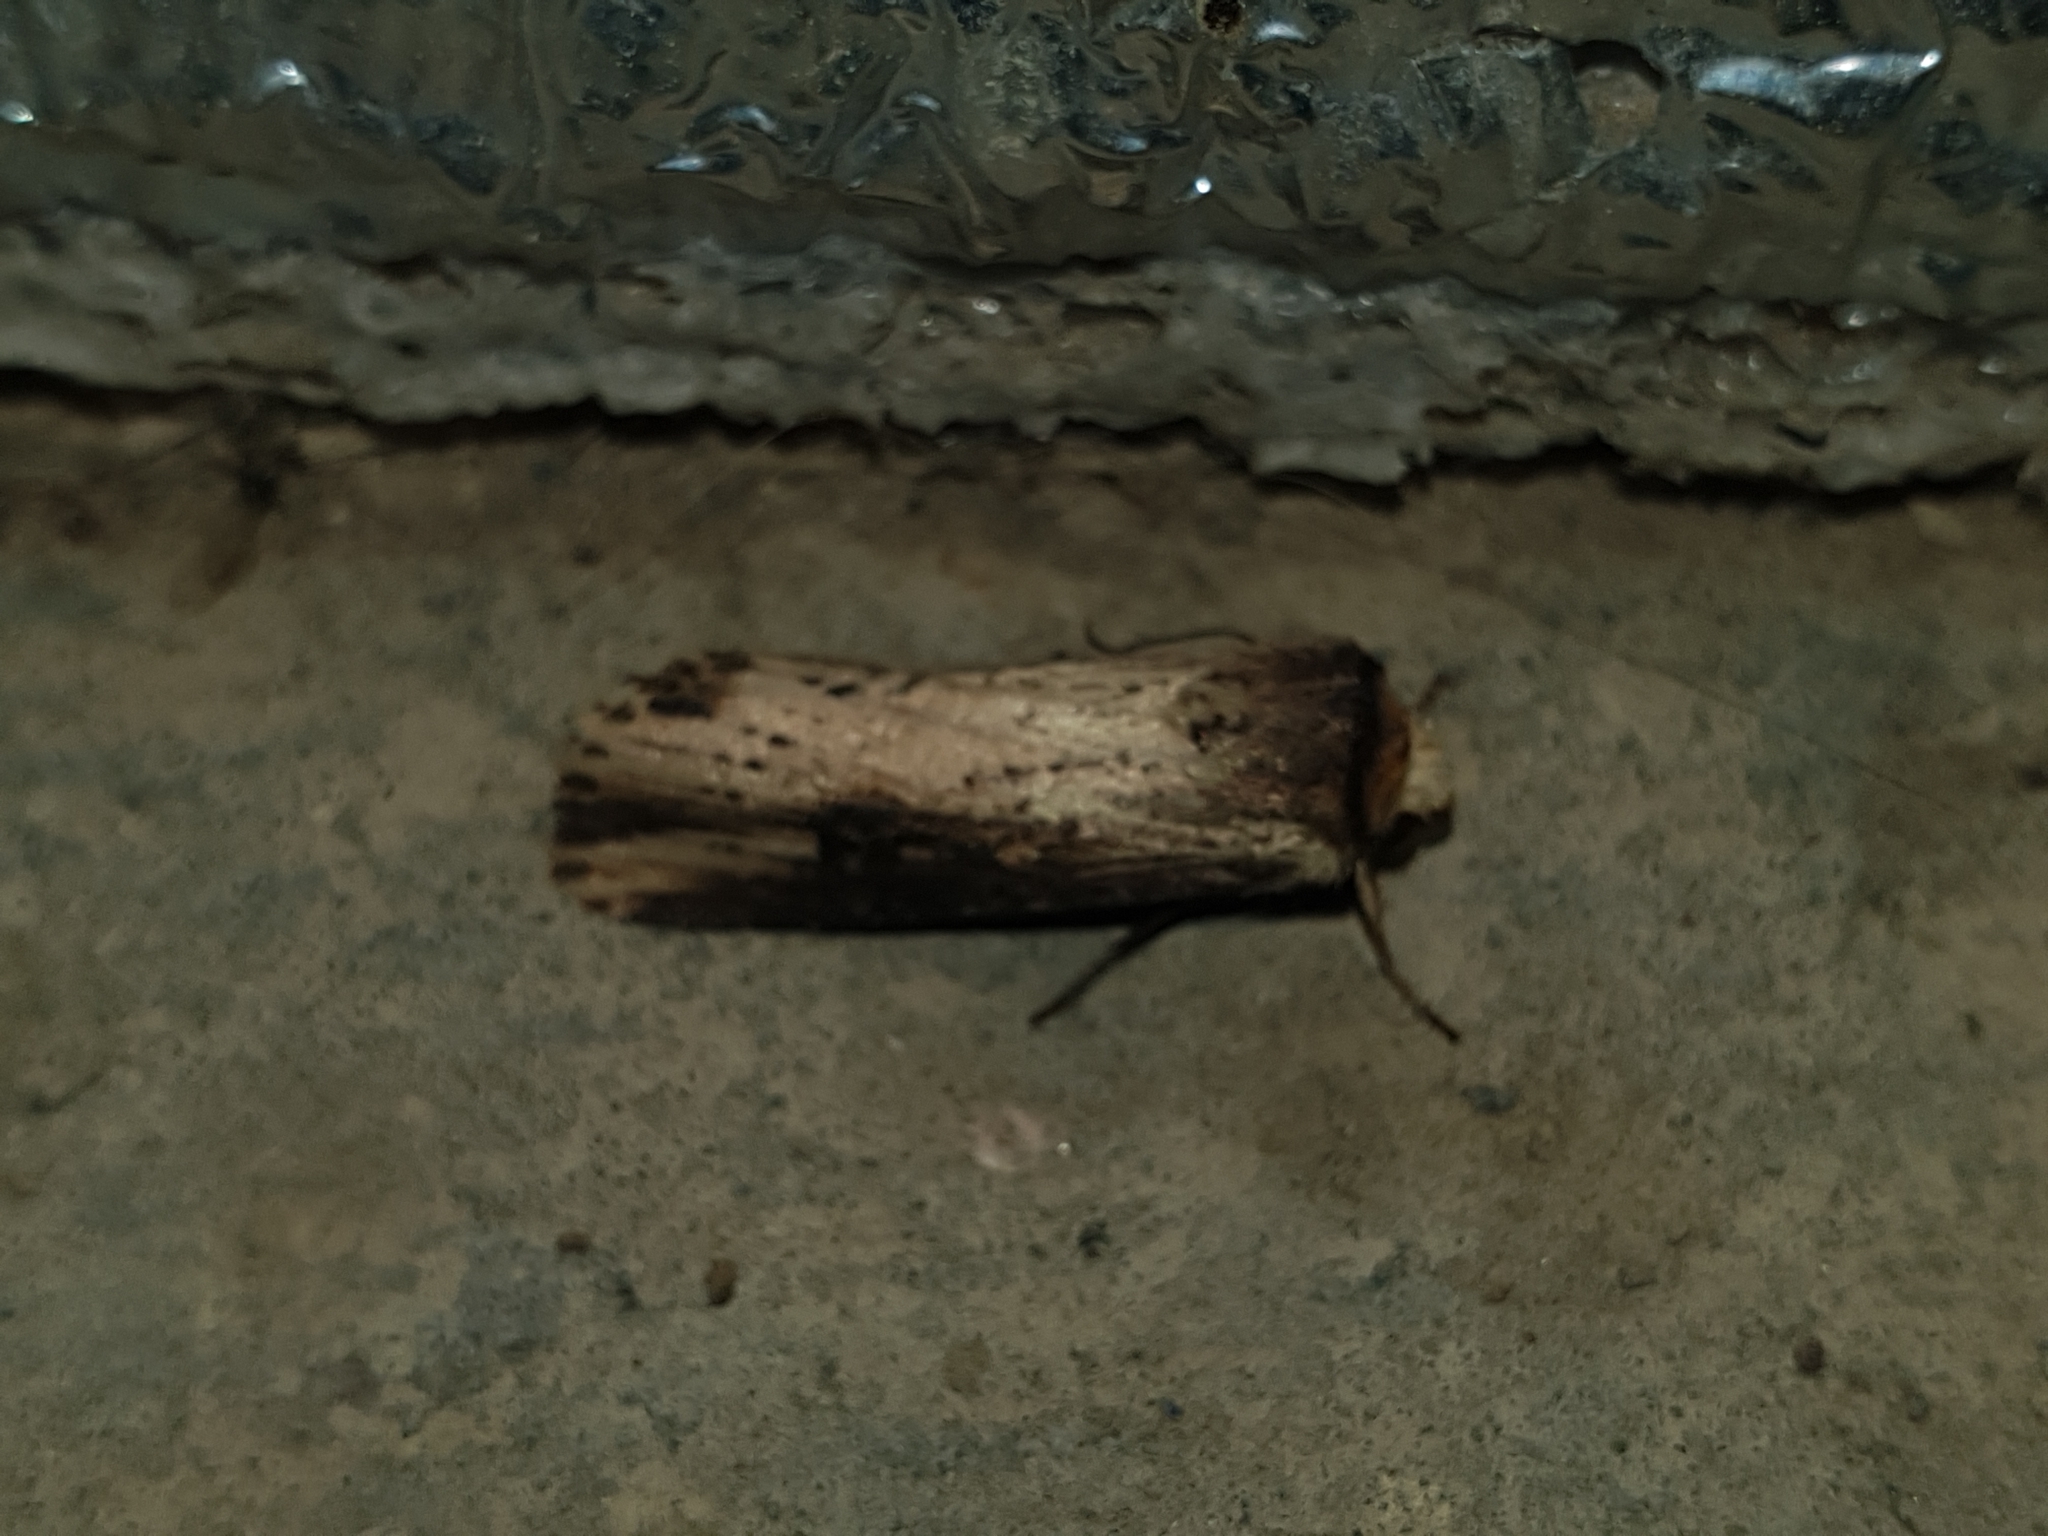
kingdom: Animalia
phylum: Arthropoda
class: Insecta
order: Lepidoptera
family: Noctuidae
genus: Axylia
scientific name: Axylia putris
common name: Flame
